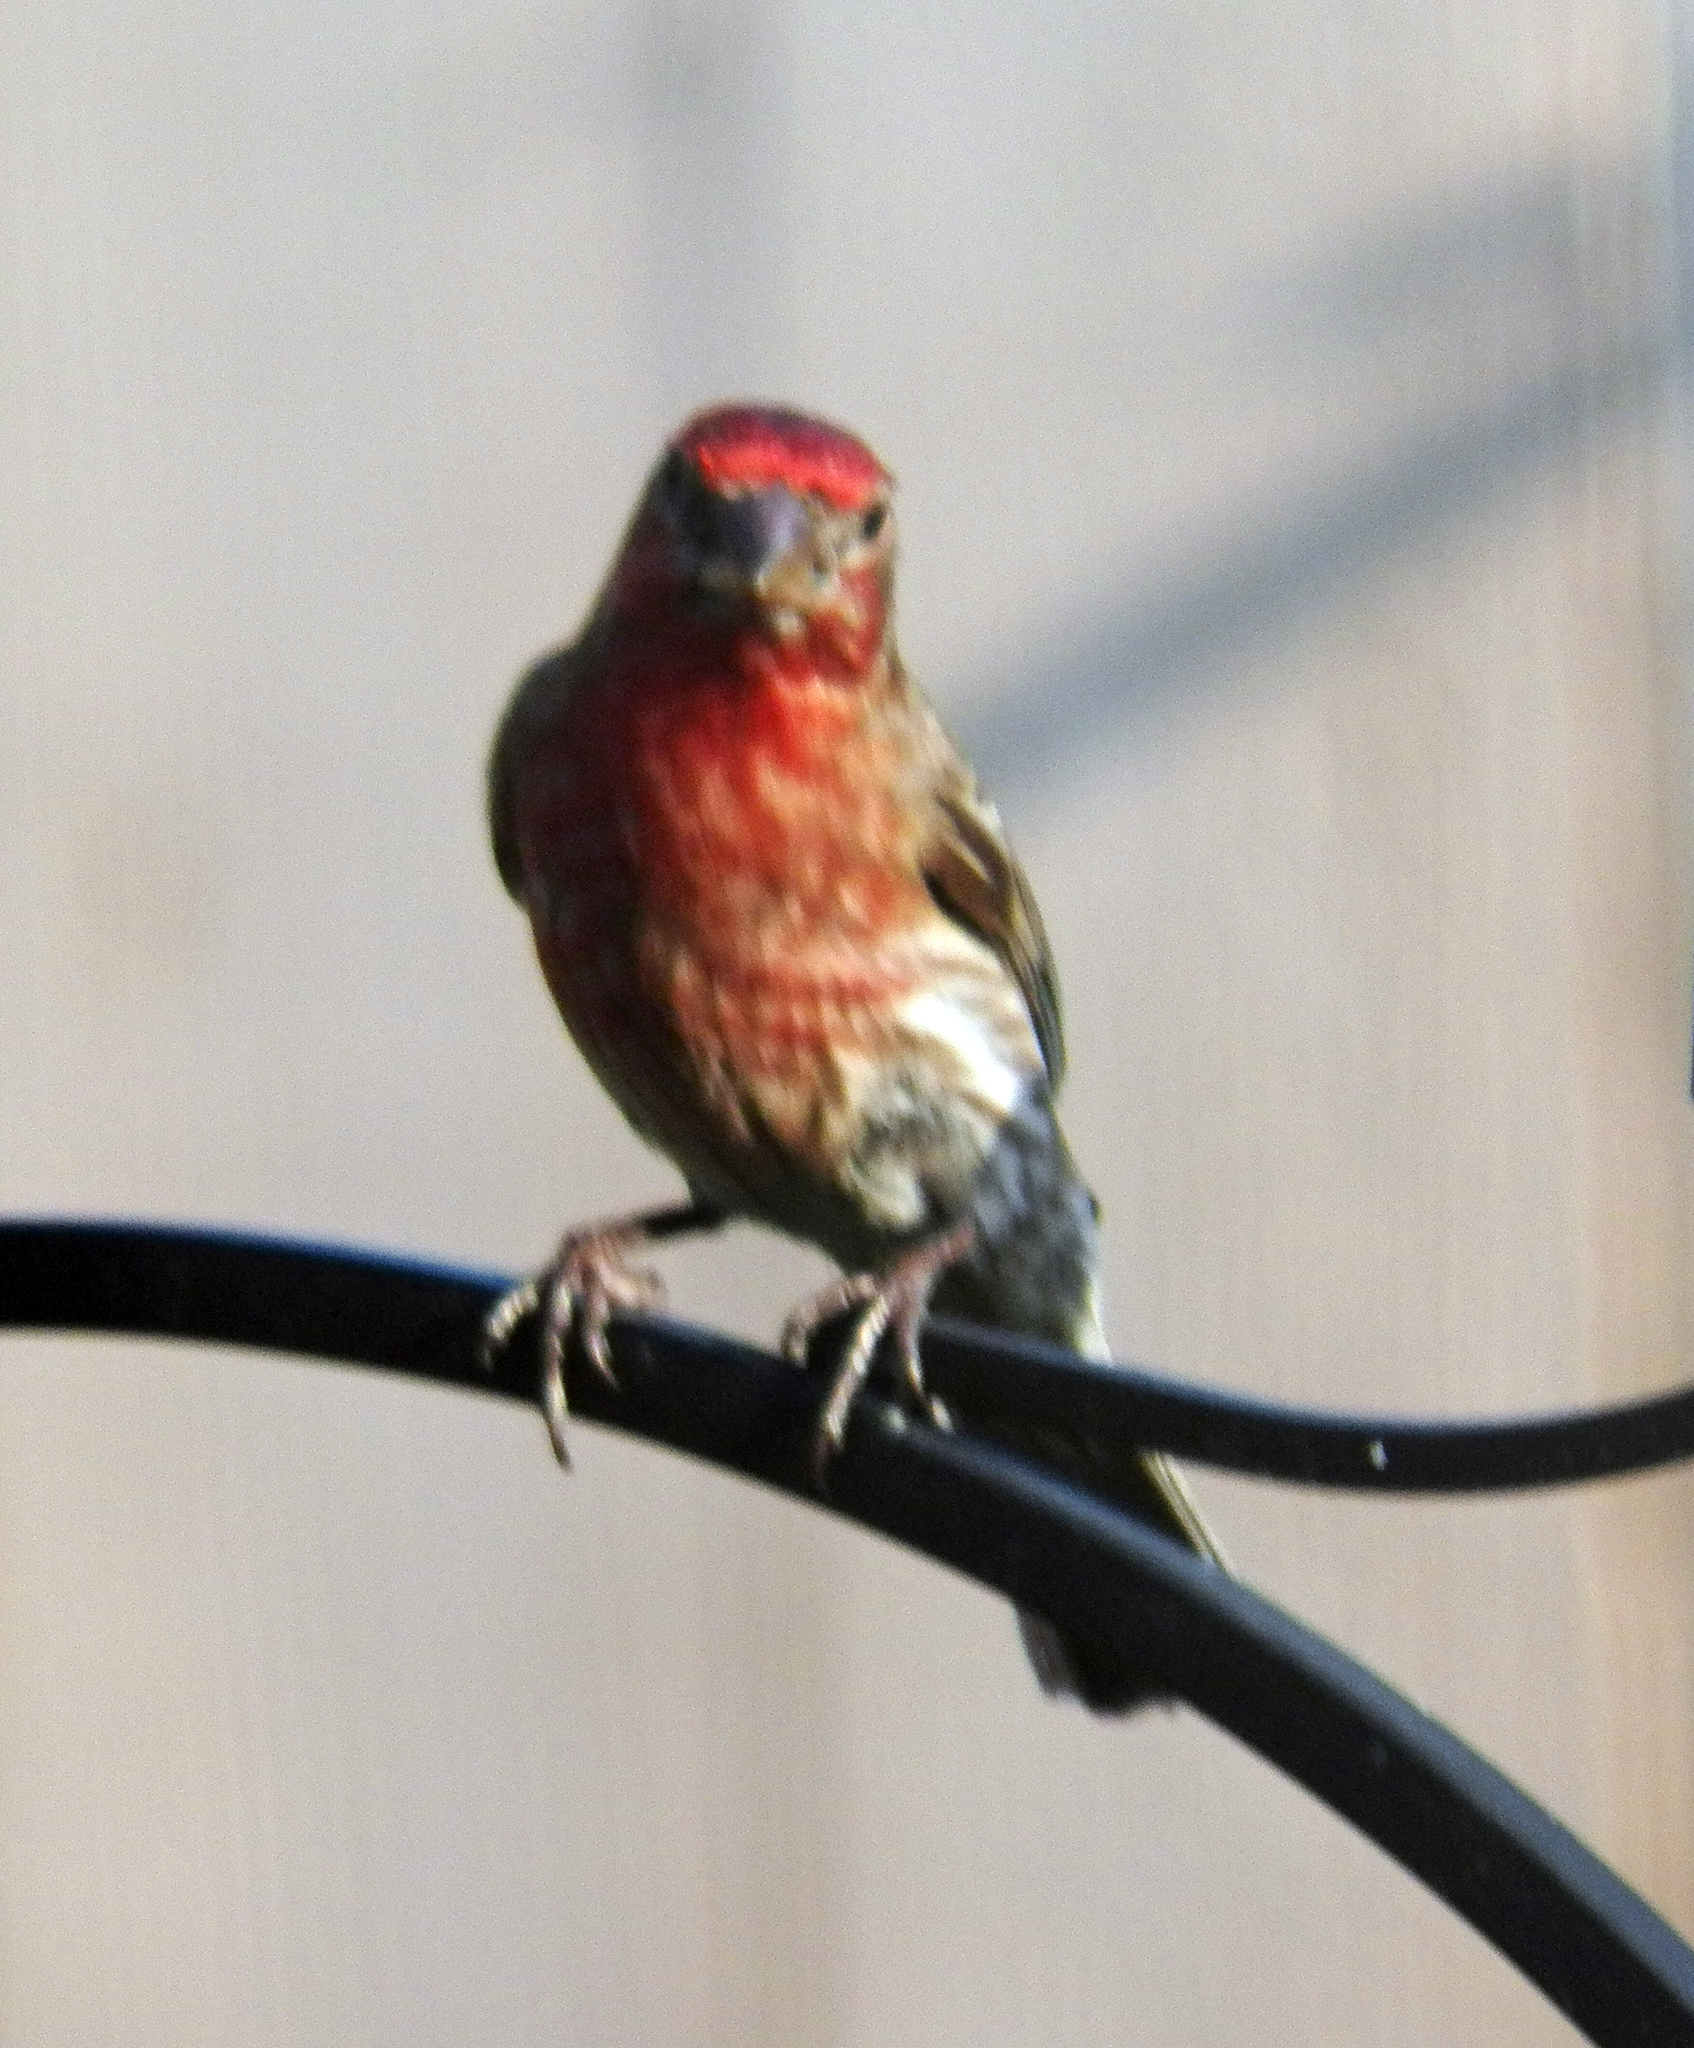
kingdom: Animalia
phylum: Chordata
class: Aves
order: Passeriformes
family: Fringillidae
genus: Haemorhous
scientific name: Haemorhous mexicanus
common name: House finch
